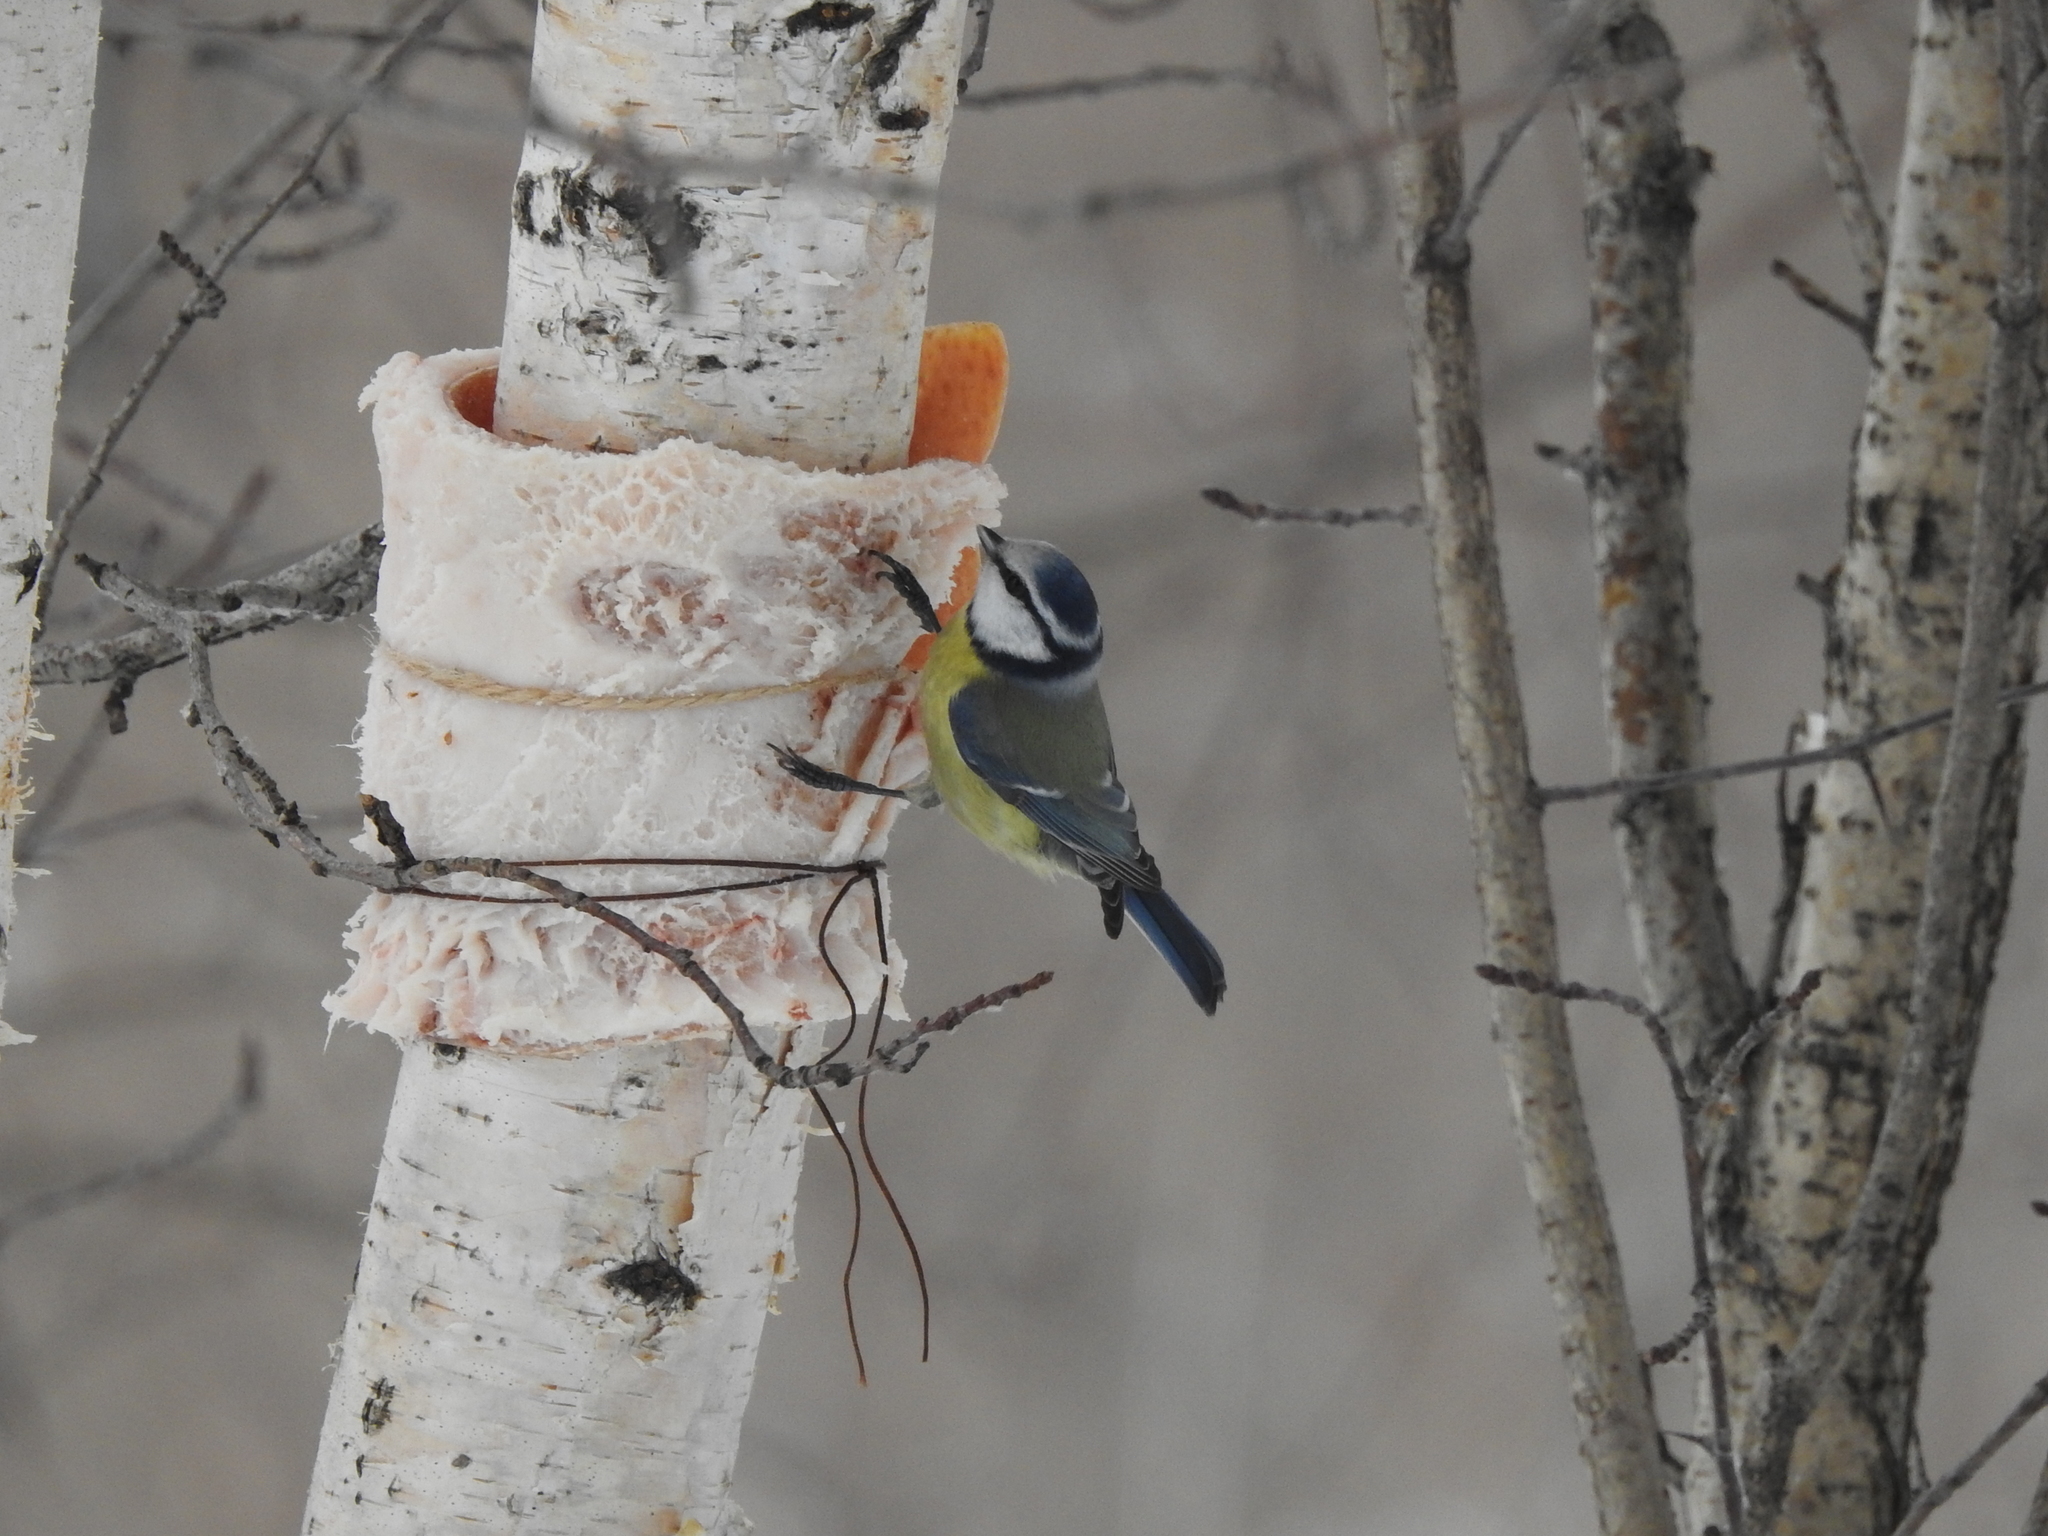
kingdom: Animalia
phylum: Chordata
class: Aves
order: Passeriformes
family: Paridae
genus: Cyanistes
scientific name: Cyanistes caeruleus
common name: Eurasian blue tit
